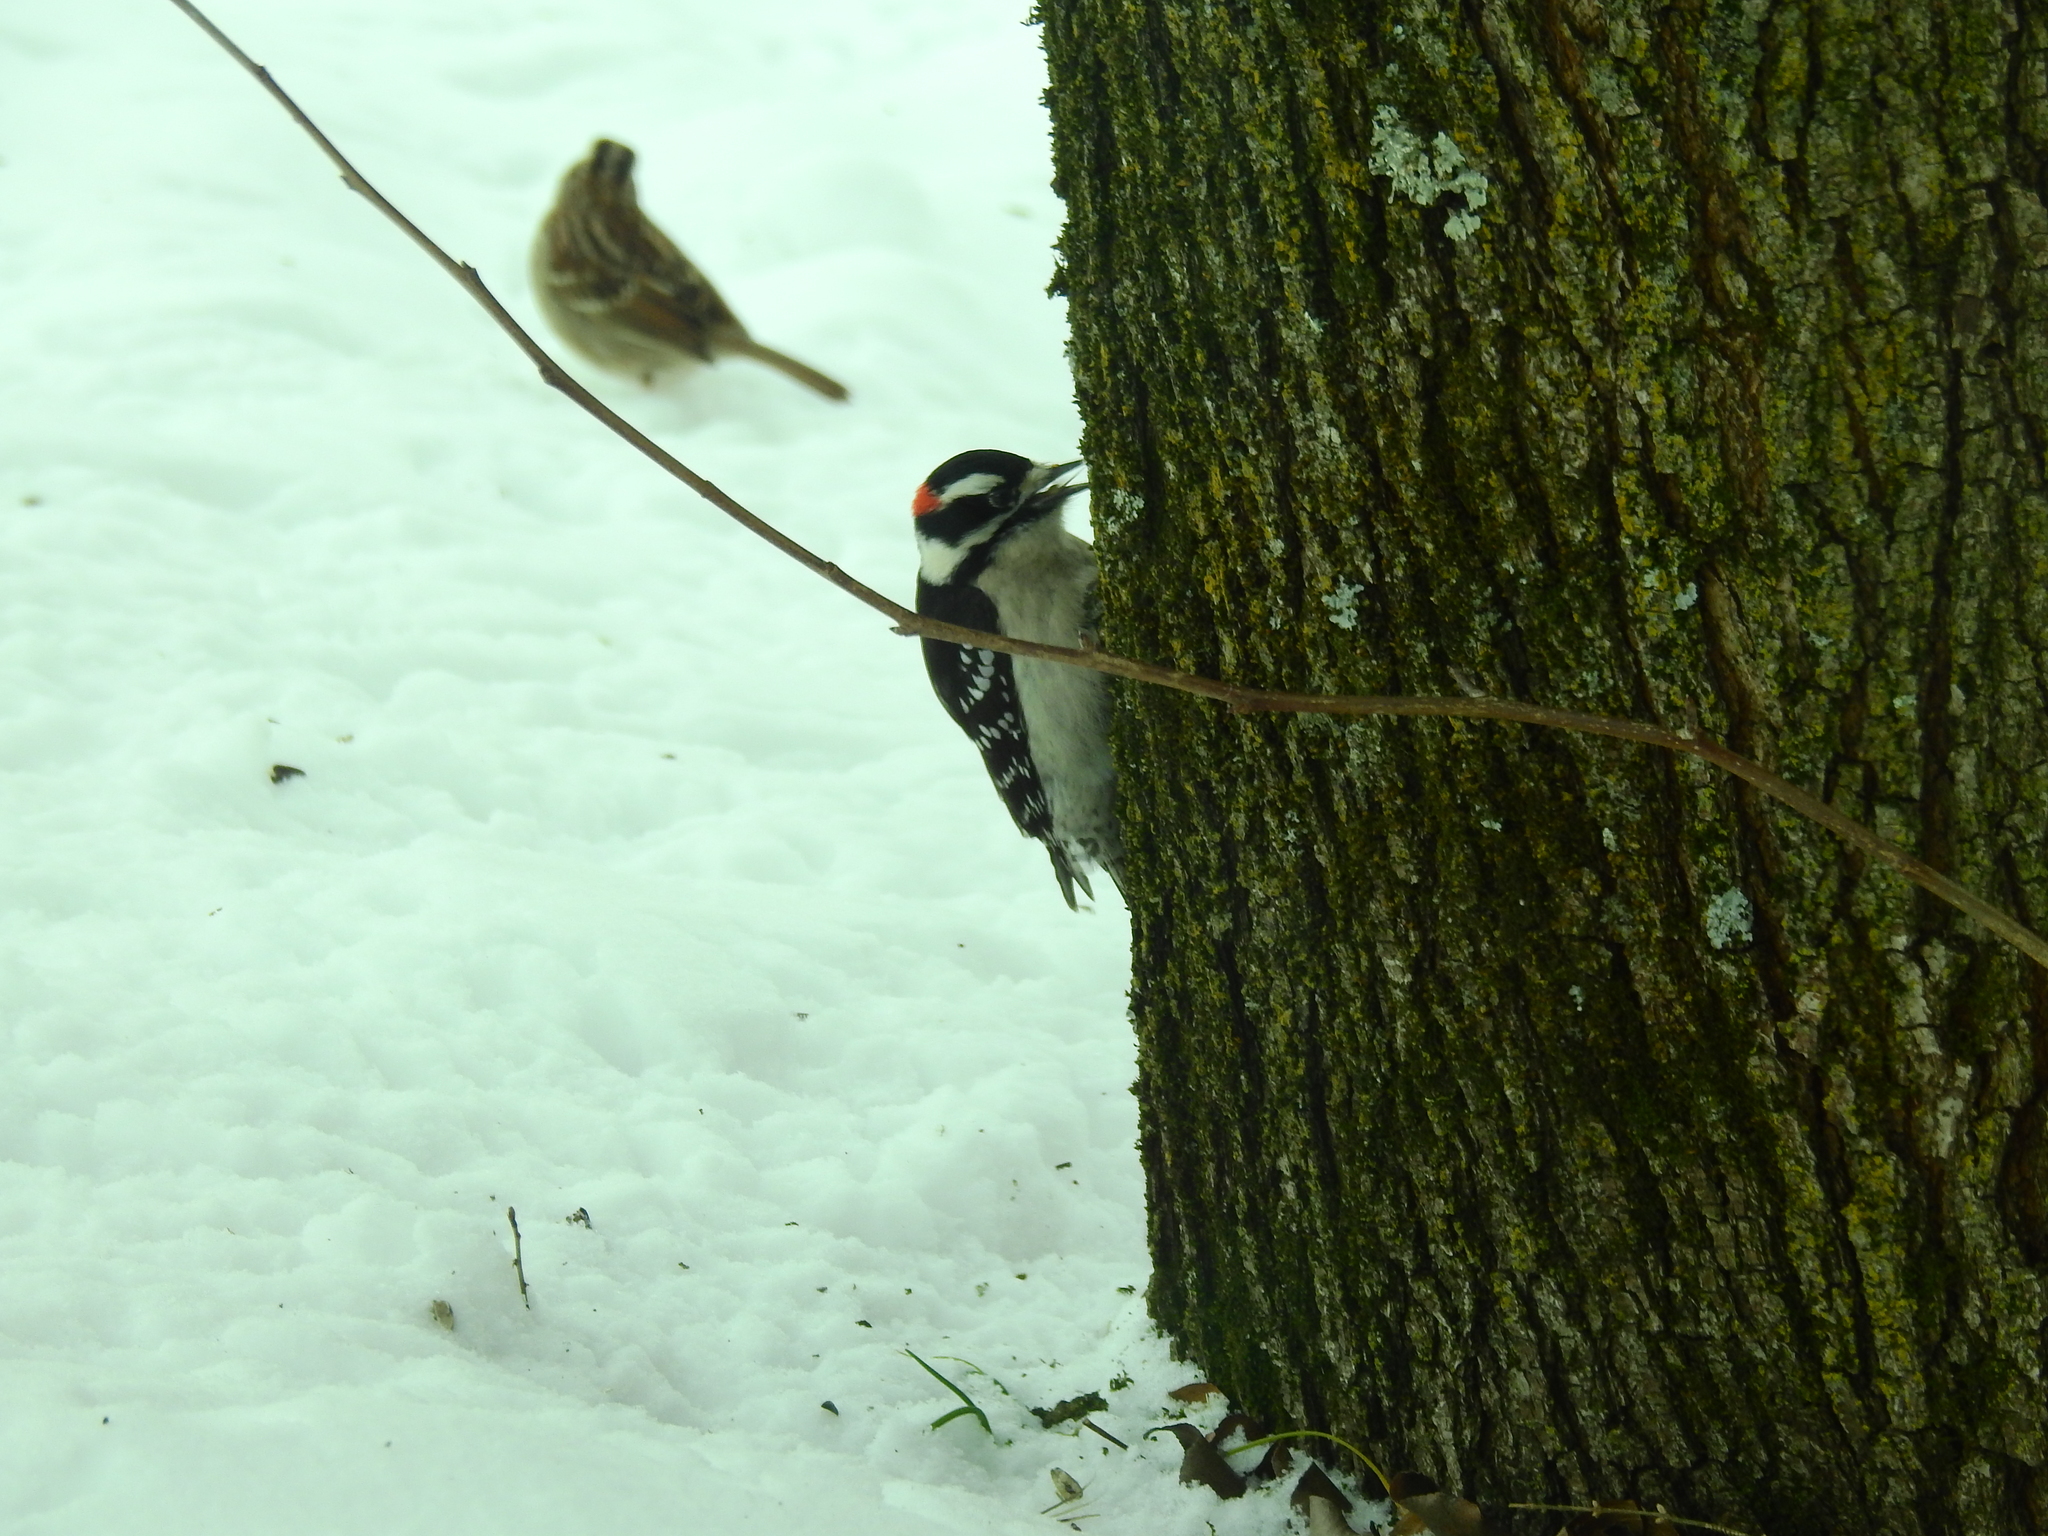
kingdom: Animalia
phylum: Chordata
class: Aves
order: Piciformes
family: Picidae
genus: Dryobates
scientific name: Dryobates pubescens
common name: Downy woodpecker
